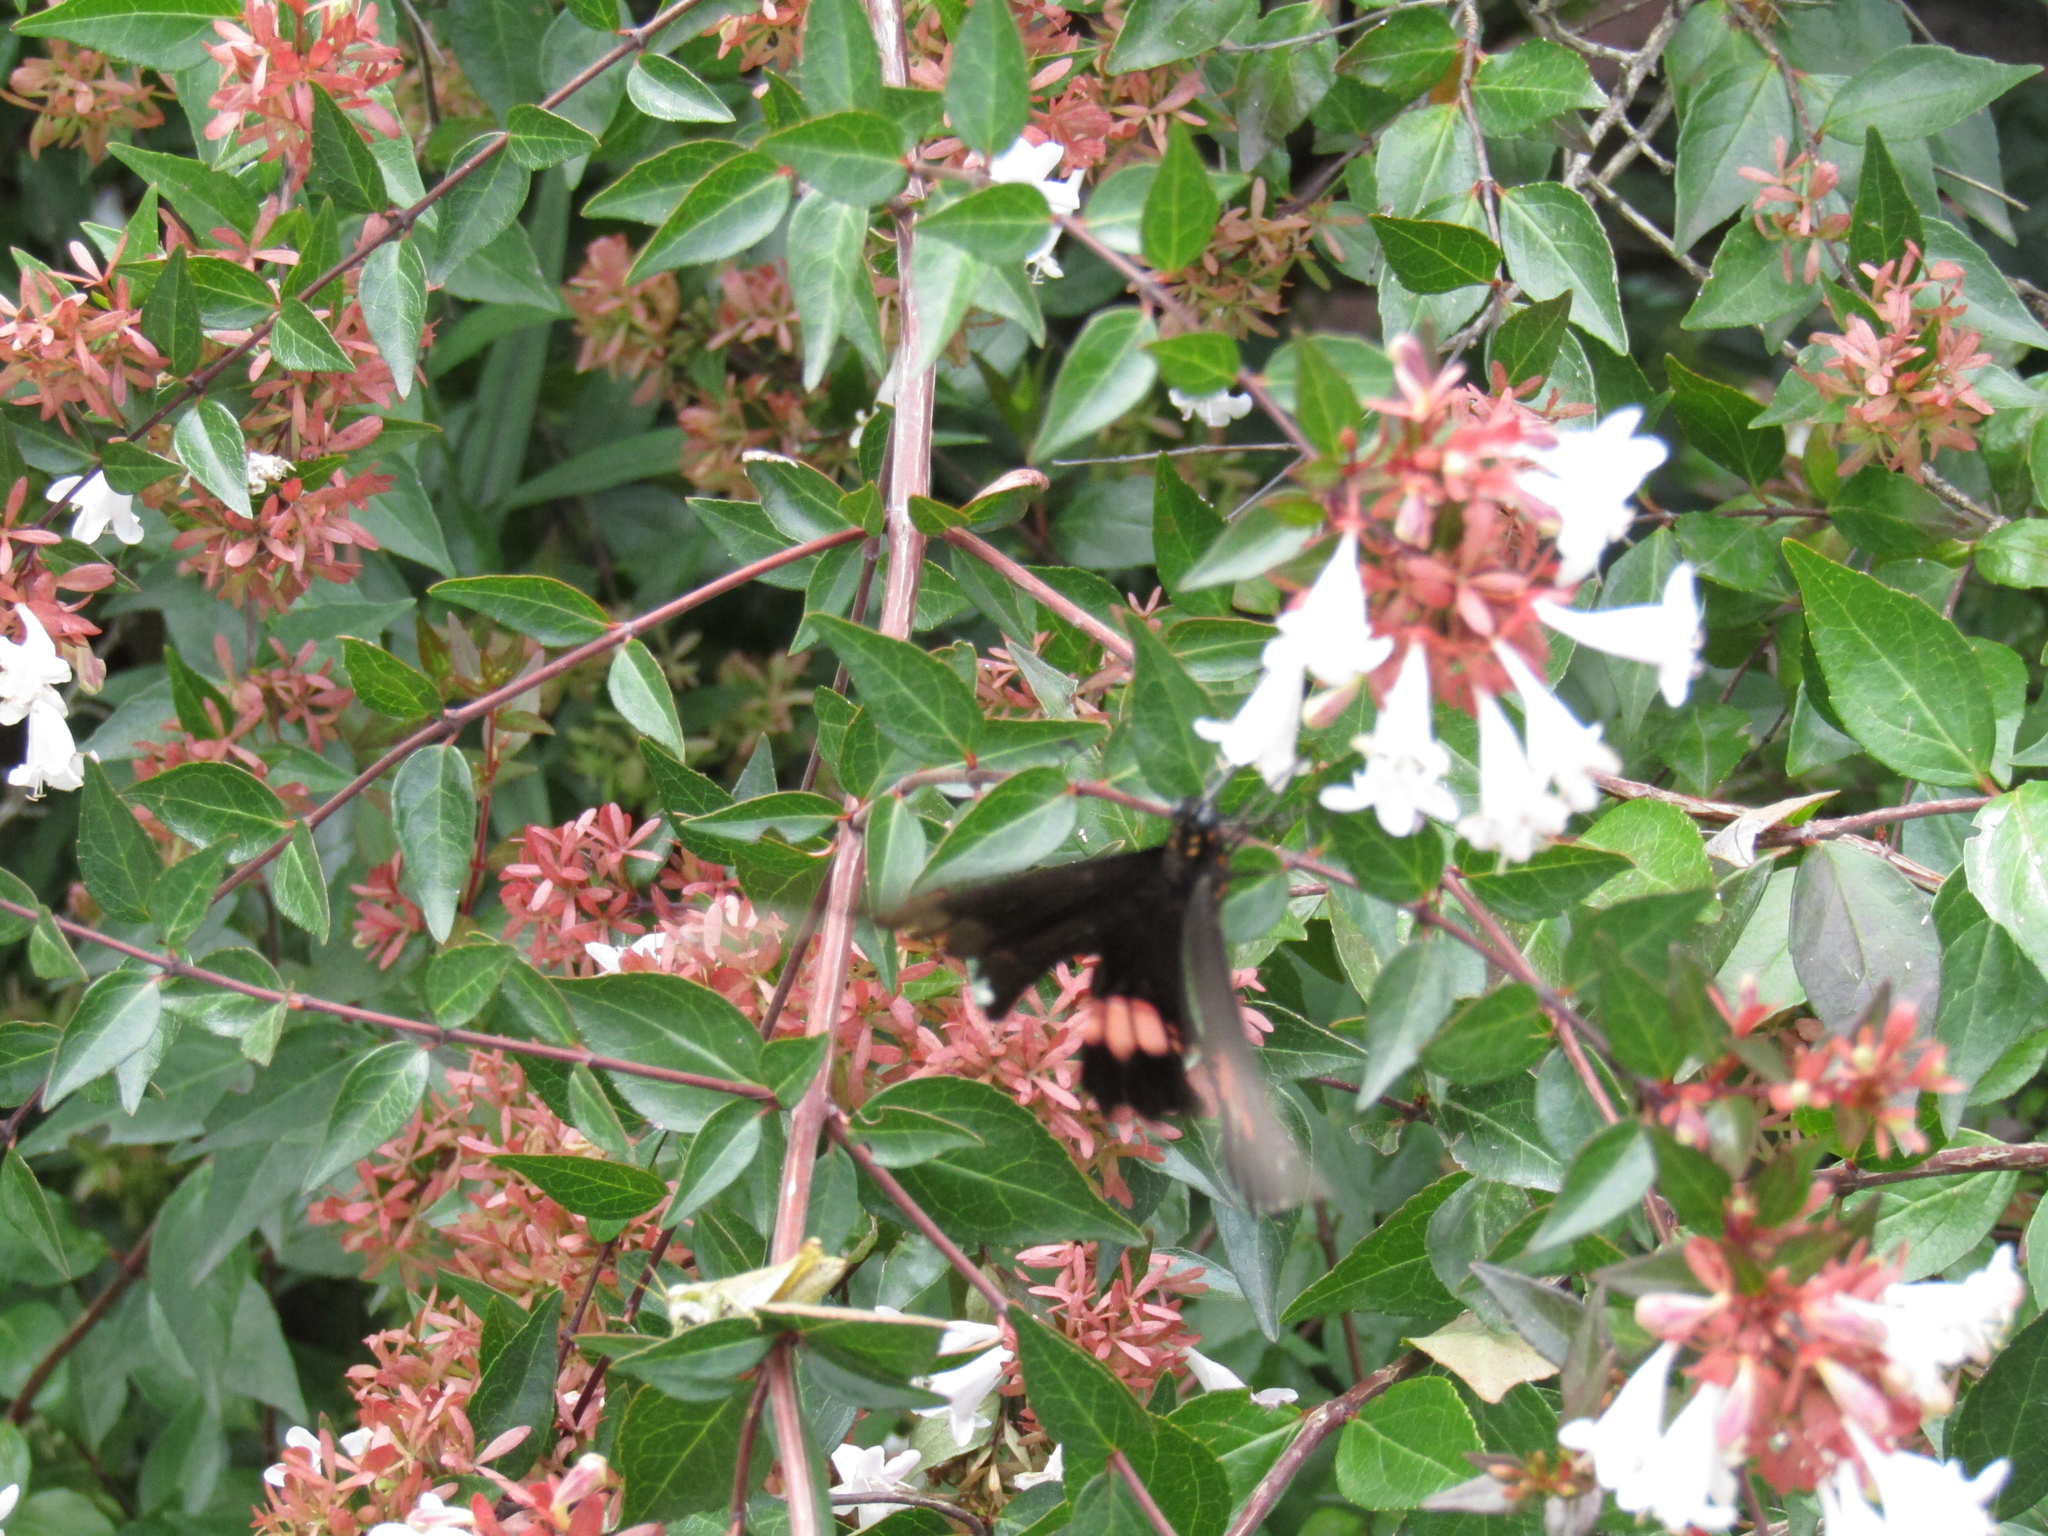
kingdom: Animalia
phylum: Arthropoda
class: Insecta
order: Lepidoptera
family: Papilionidae
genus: Papilio
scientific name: Papilio anchisiades
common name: Idaes swallowtail
